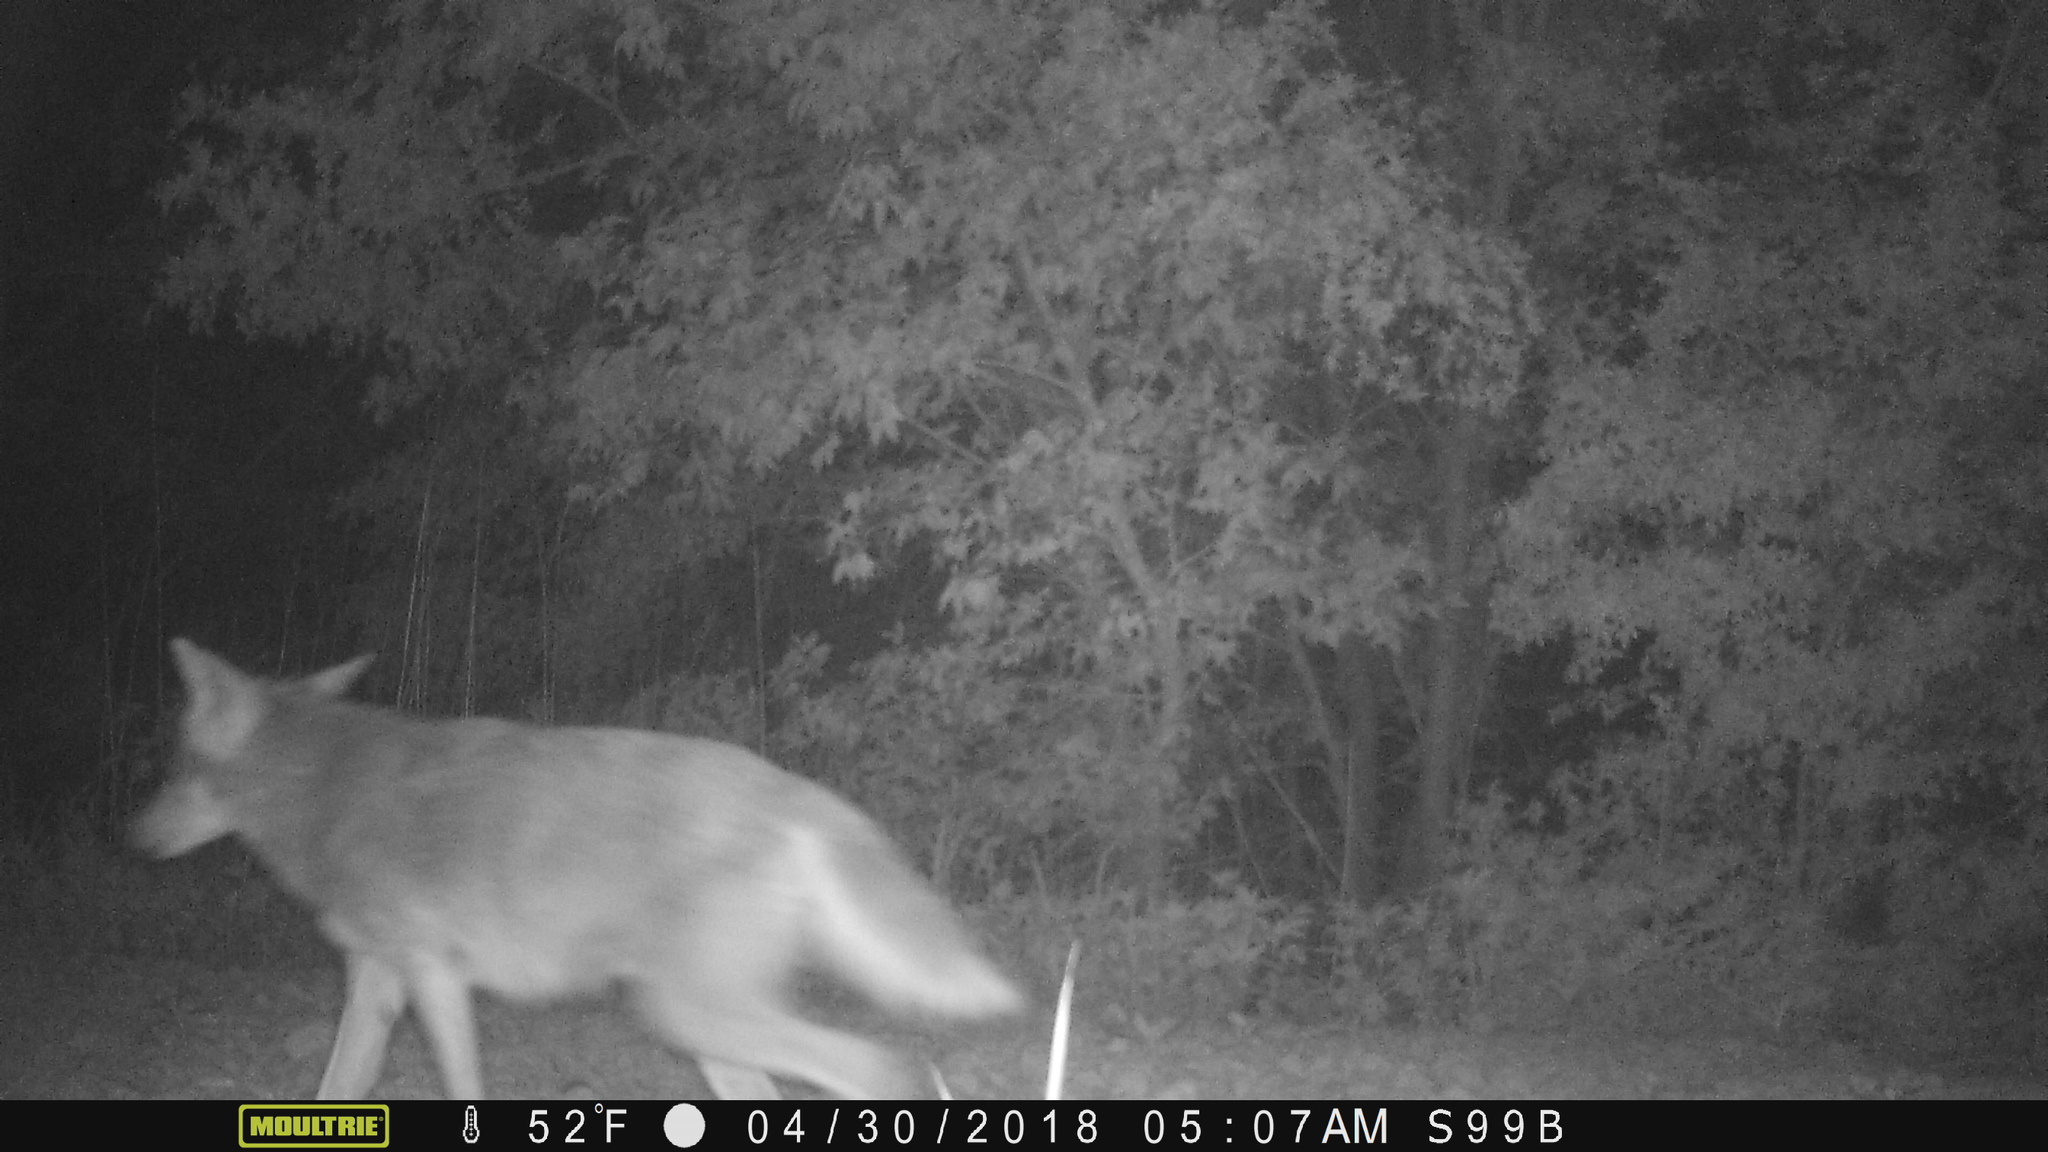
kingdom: Animalia
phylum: Chordata
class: Mammalia
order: Carnivora
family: Canidae
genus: Canis
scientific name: Canis latrans
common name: Coyote
